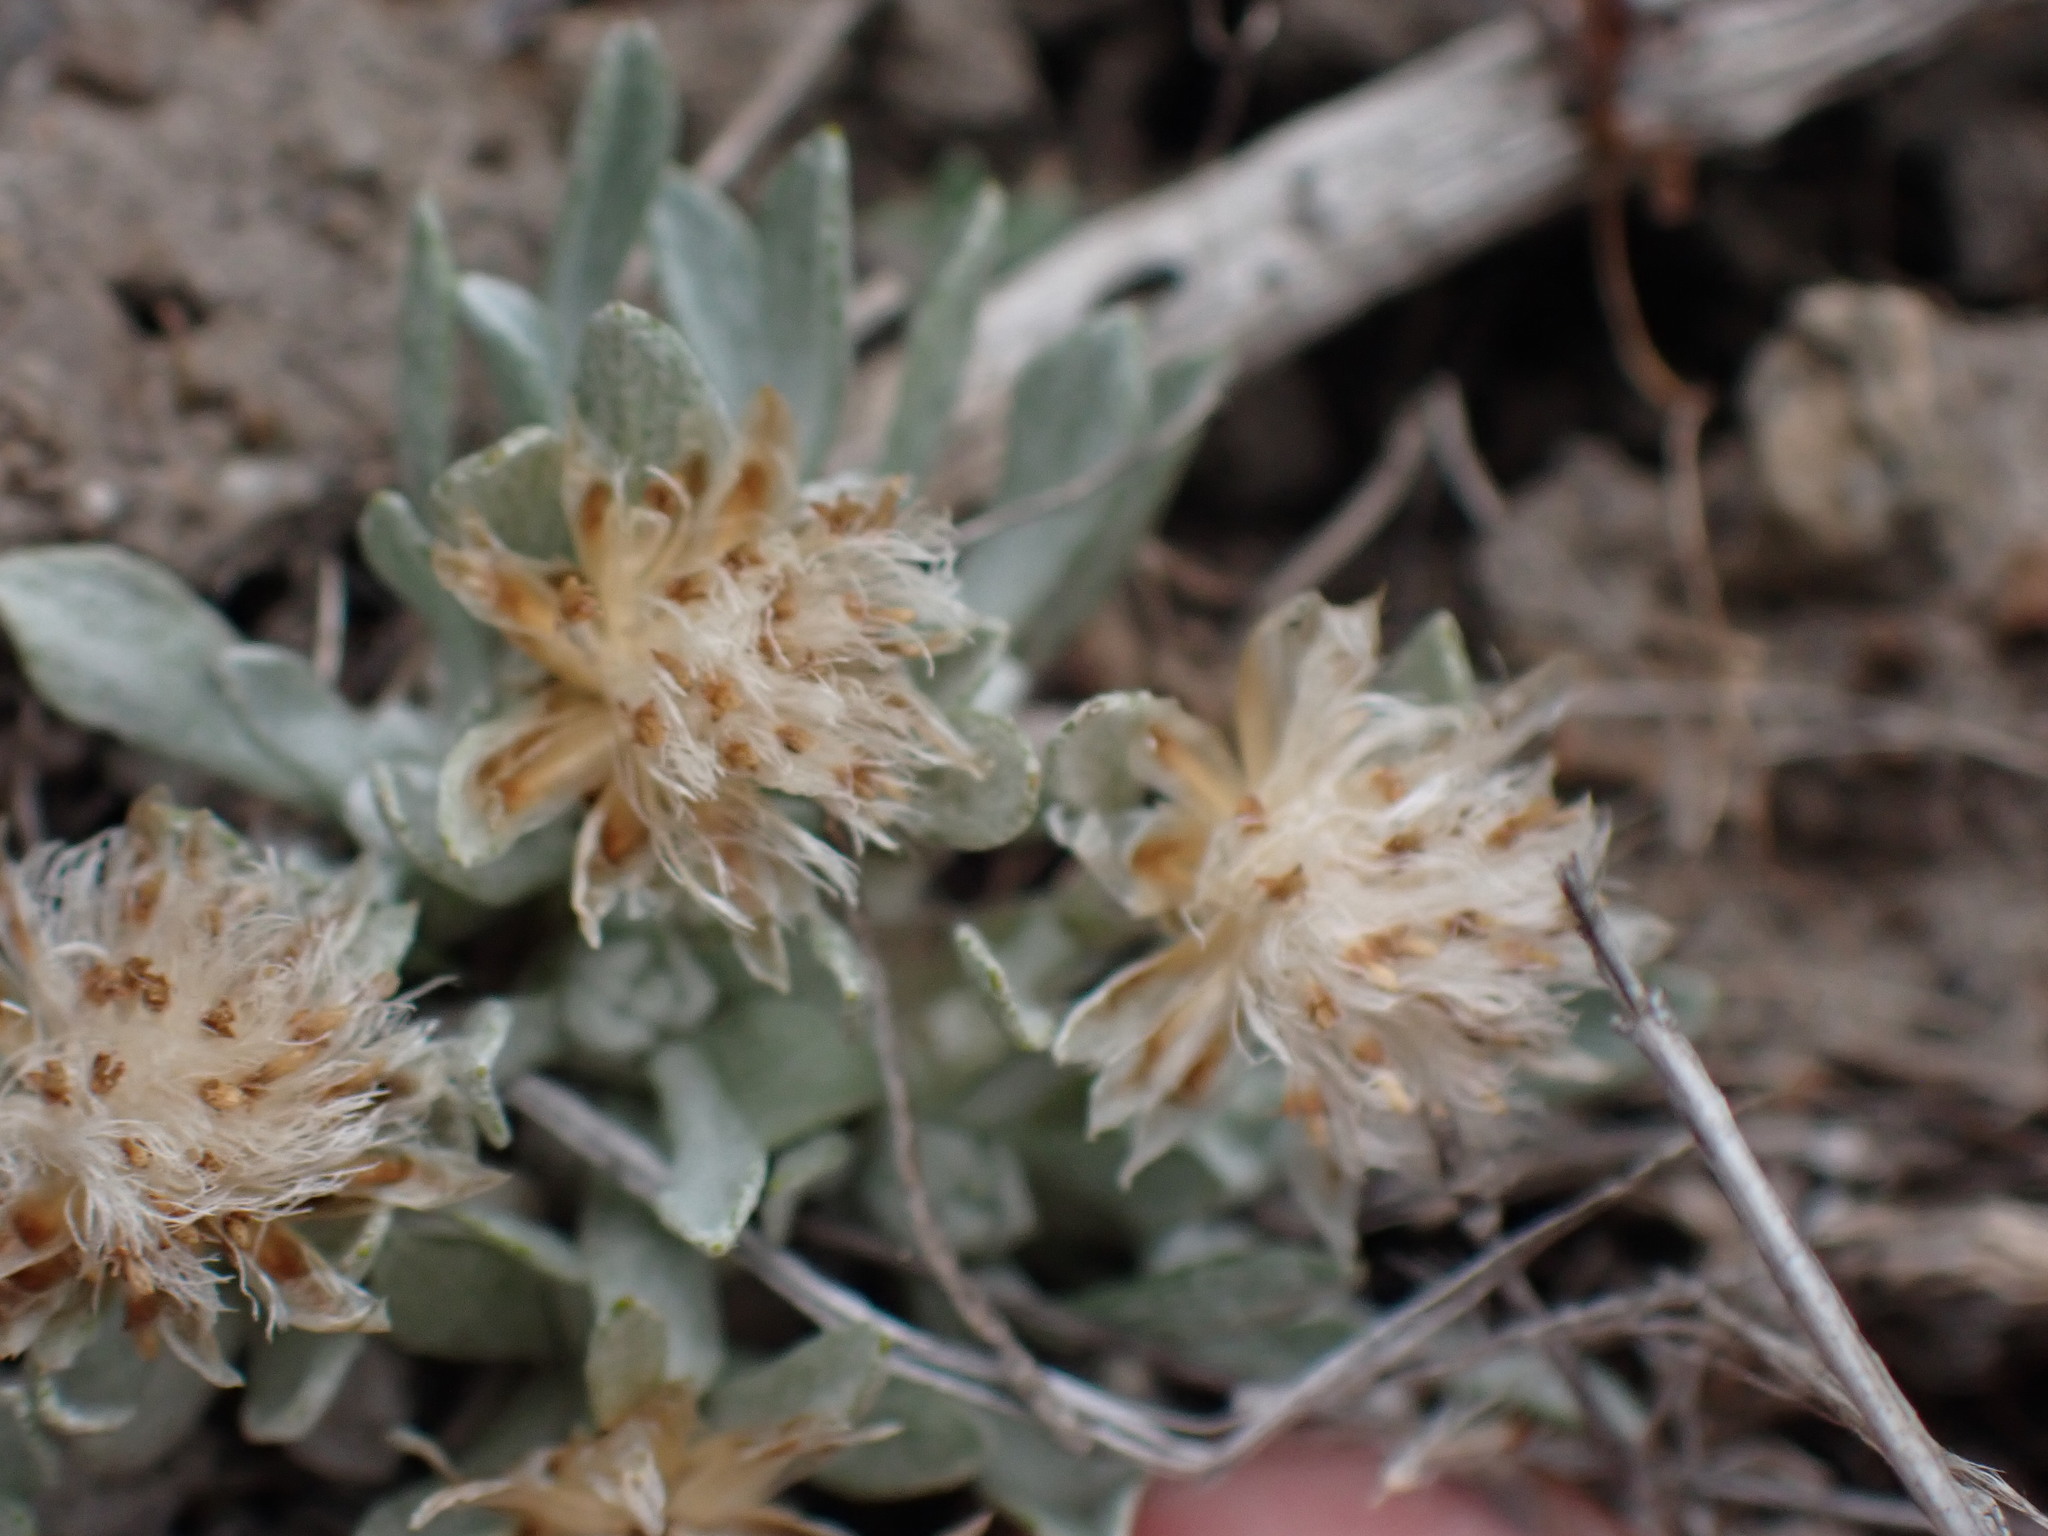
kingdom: Plantae
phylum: Tracheophyta
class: Magnoliopsida
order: Asterales
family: Asteraceae
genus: Antennaria
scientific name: Antennaria dimorpha
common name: Cushion pussytoes
